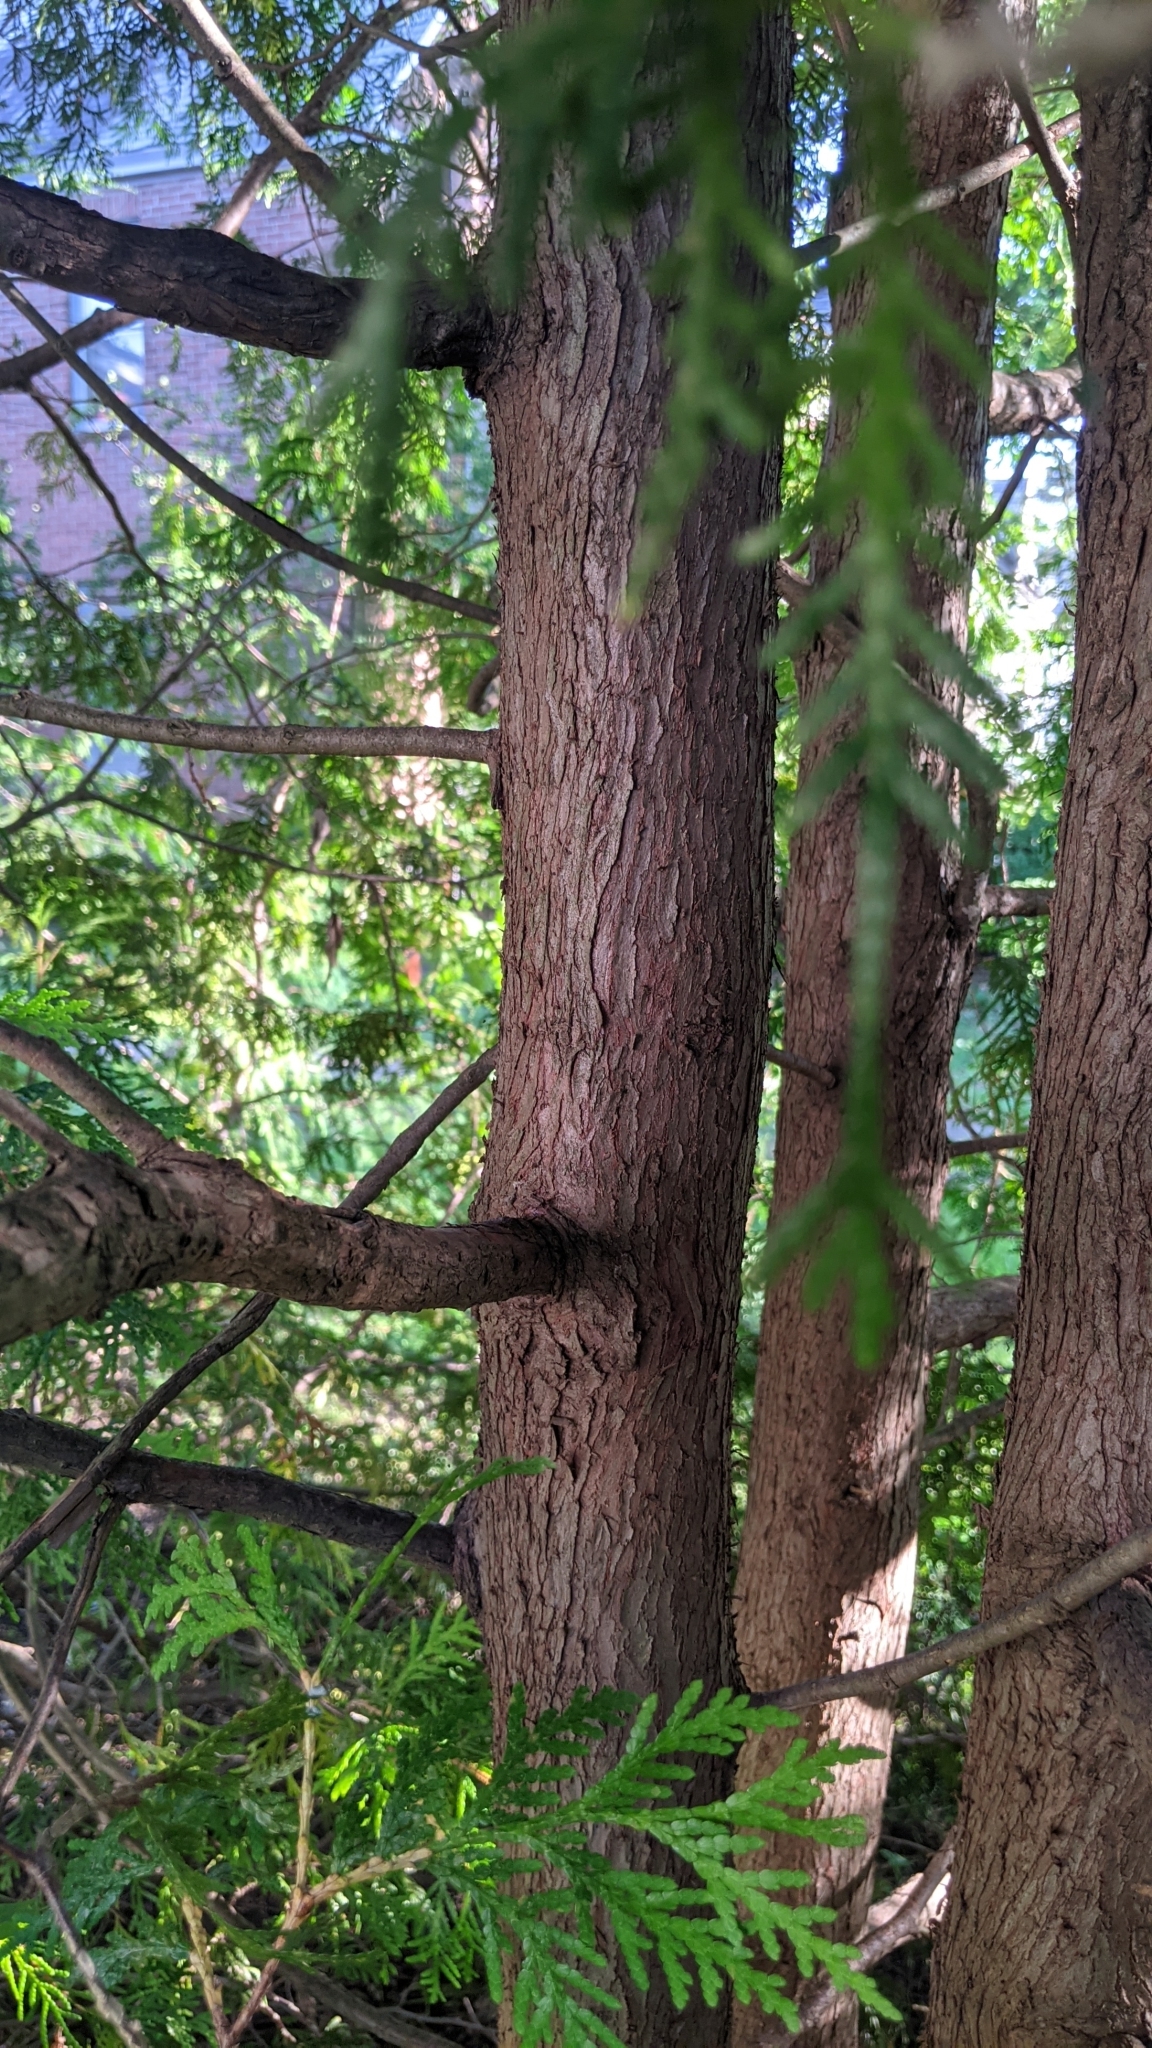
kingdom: Plantae
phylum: Tracheophyta
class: Pinopsida
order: Pinales
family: Cupressaceae
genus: Thuja
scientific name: Thuja occidentalis
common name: Northern white-cedar
